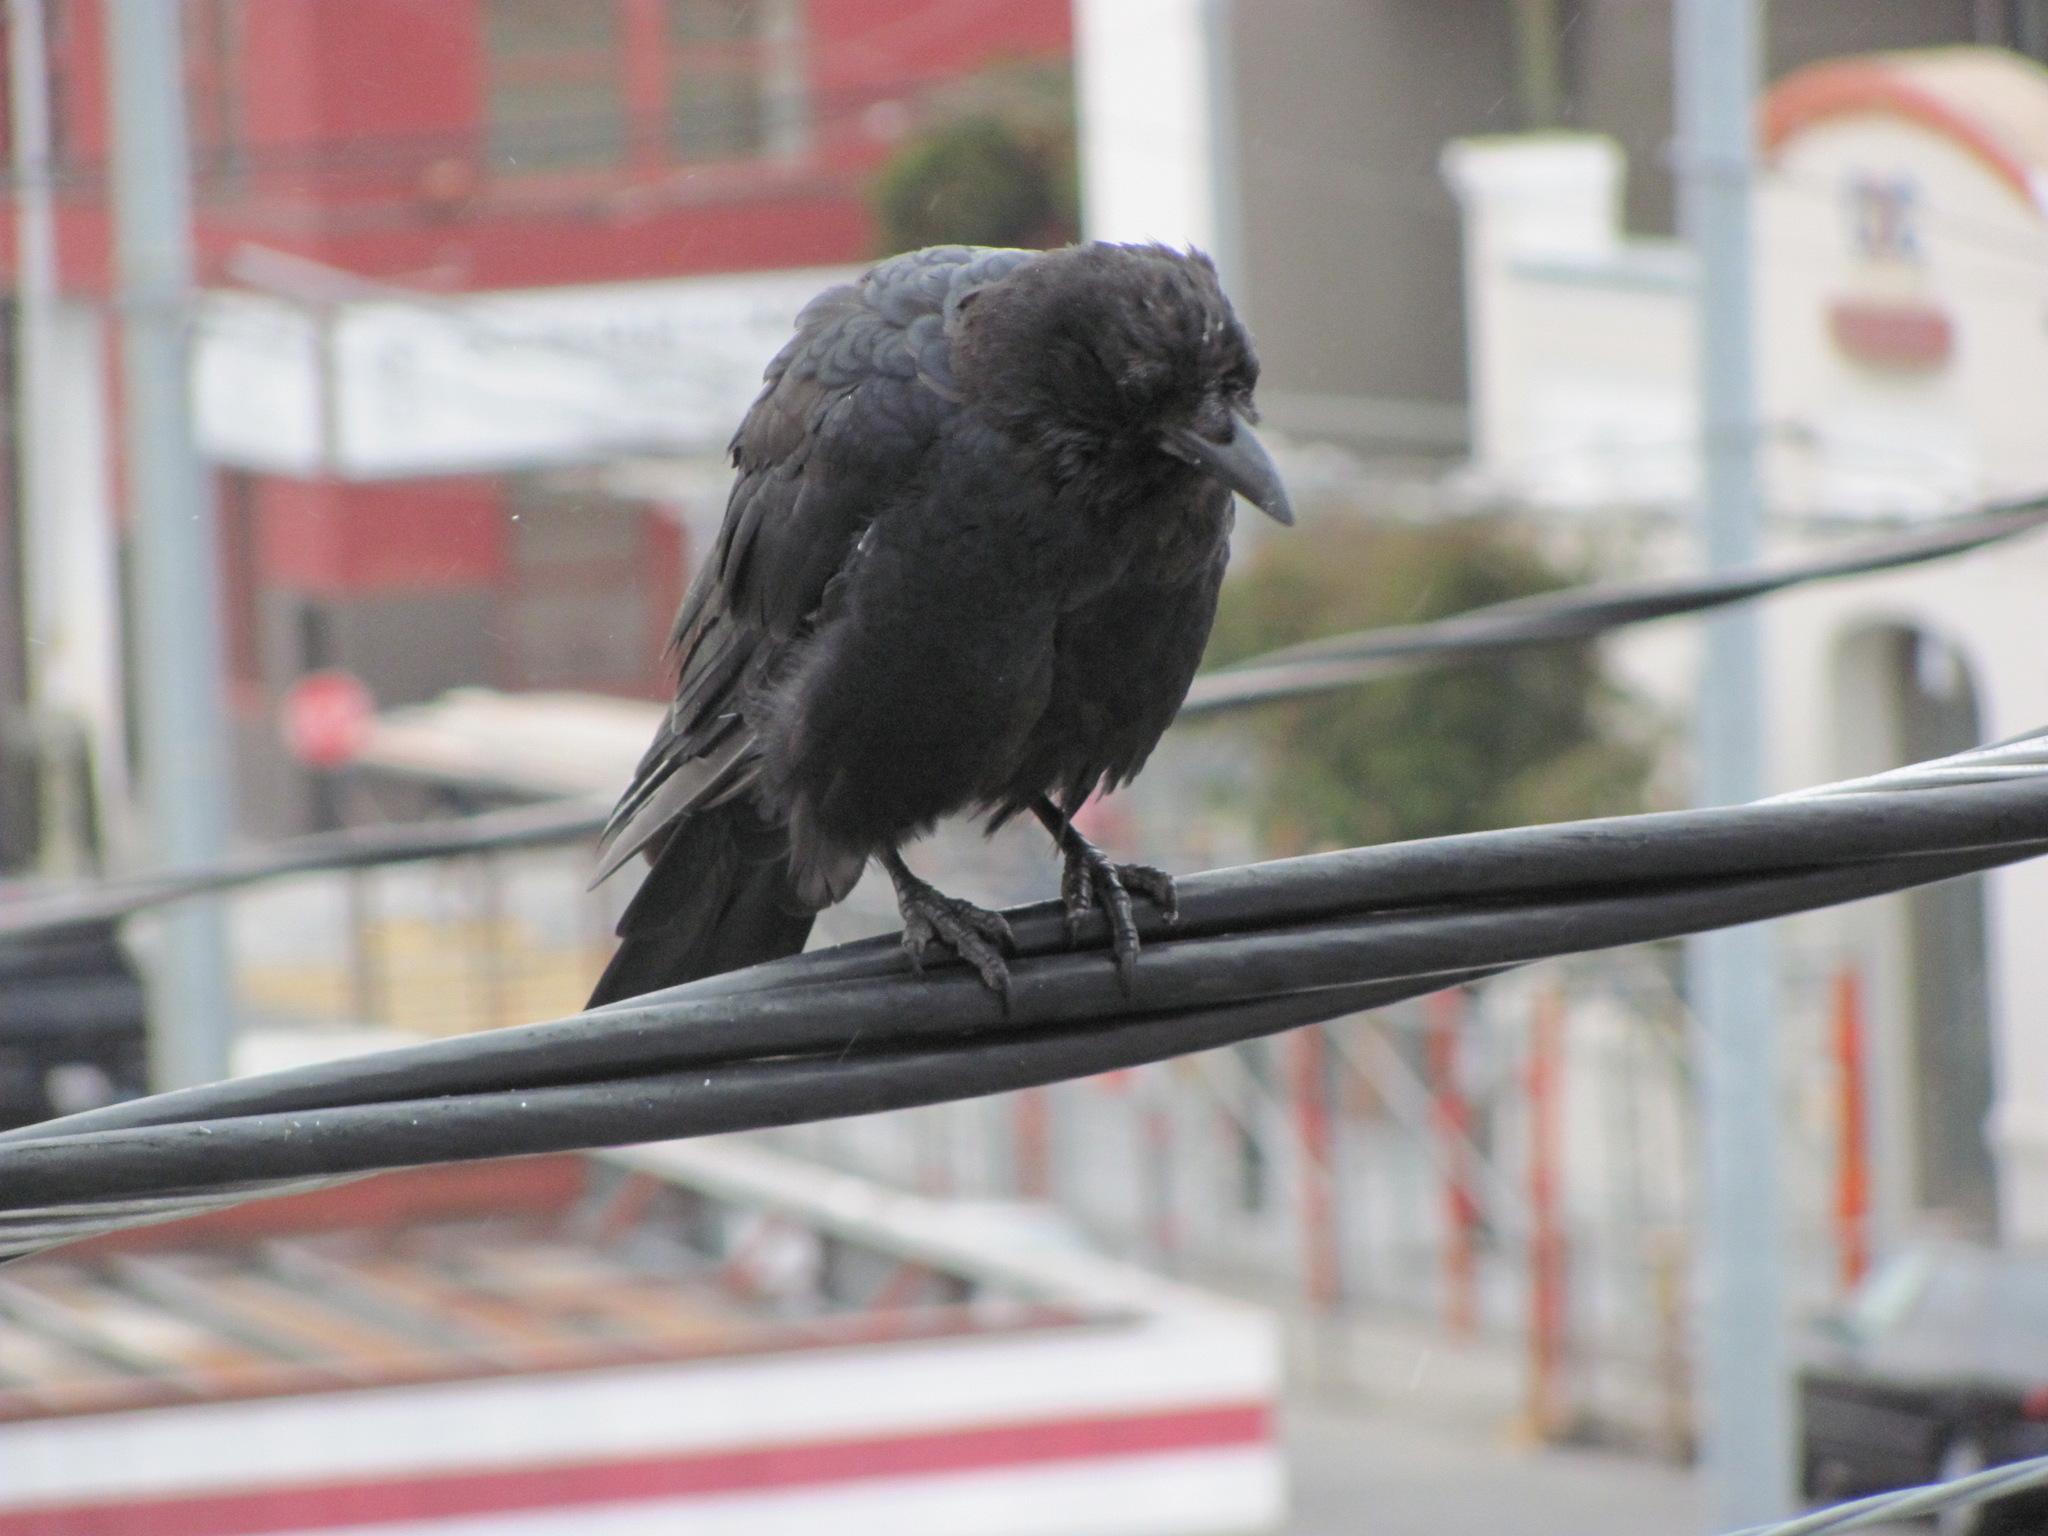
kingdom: Animalia
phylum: Chordata
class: Aves
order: Passeriformes
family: Corvidae
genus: Corvus
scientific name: Corvus brachyrhynchos
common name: American crow
